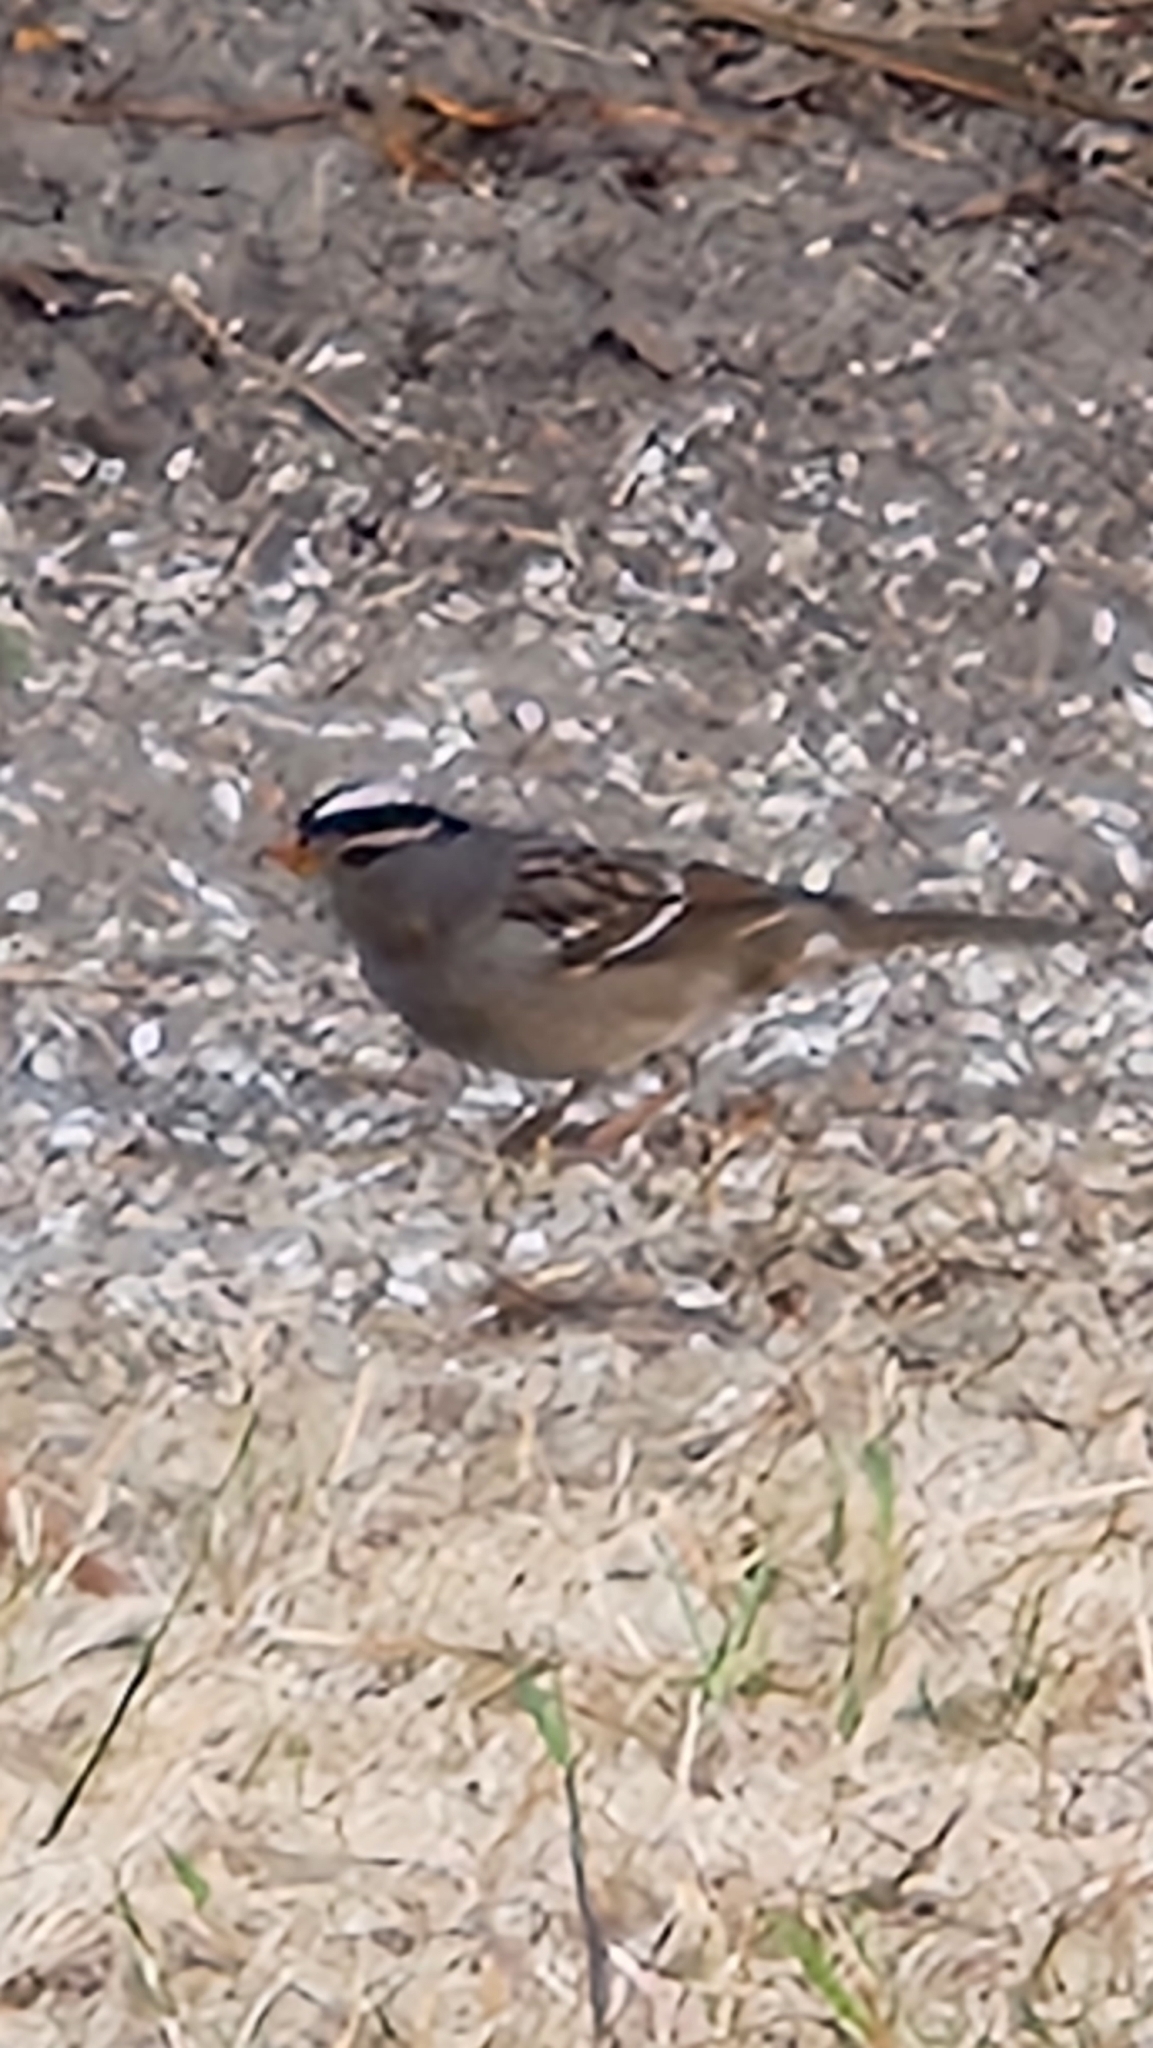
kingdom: Animalia
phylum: Chordata
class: Aves
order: Passeriformes
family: Passerellidae
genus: Zonotrichia
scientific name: Zonotrichia leucophrys
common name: White-crowned sparrow
